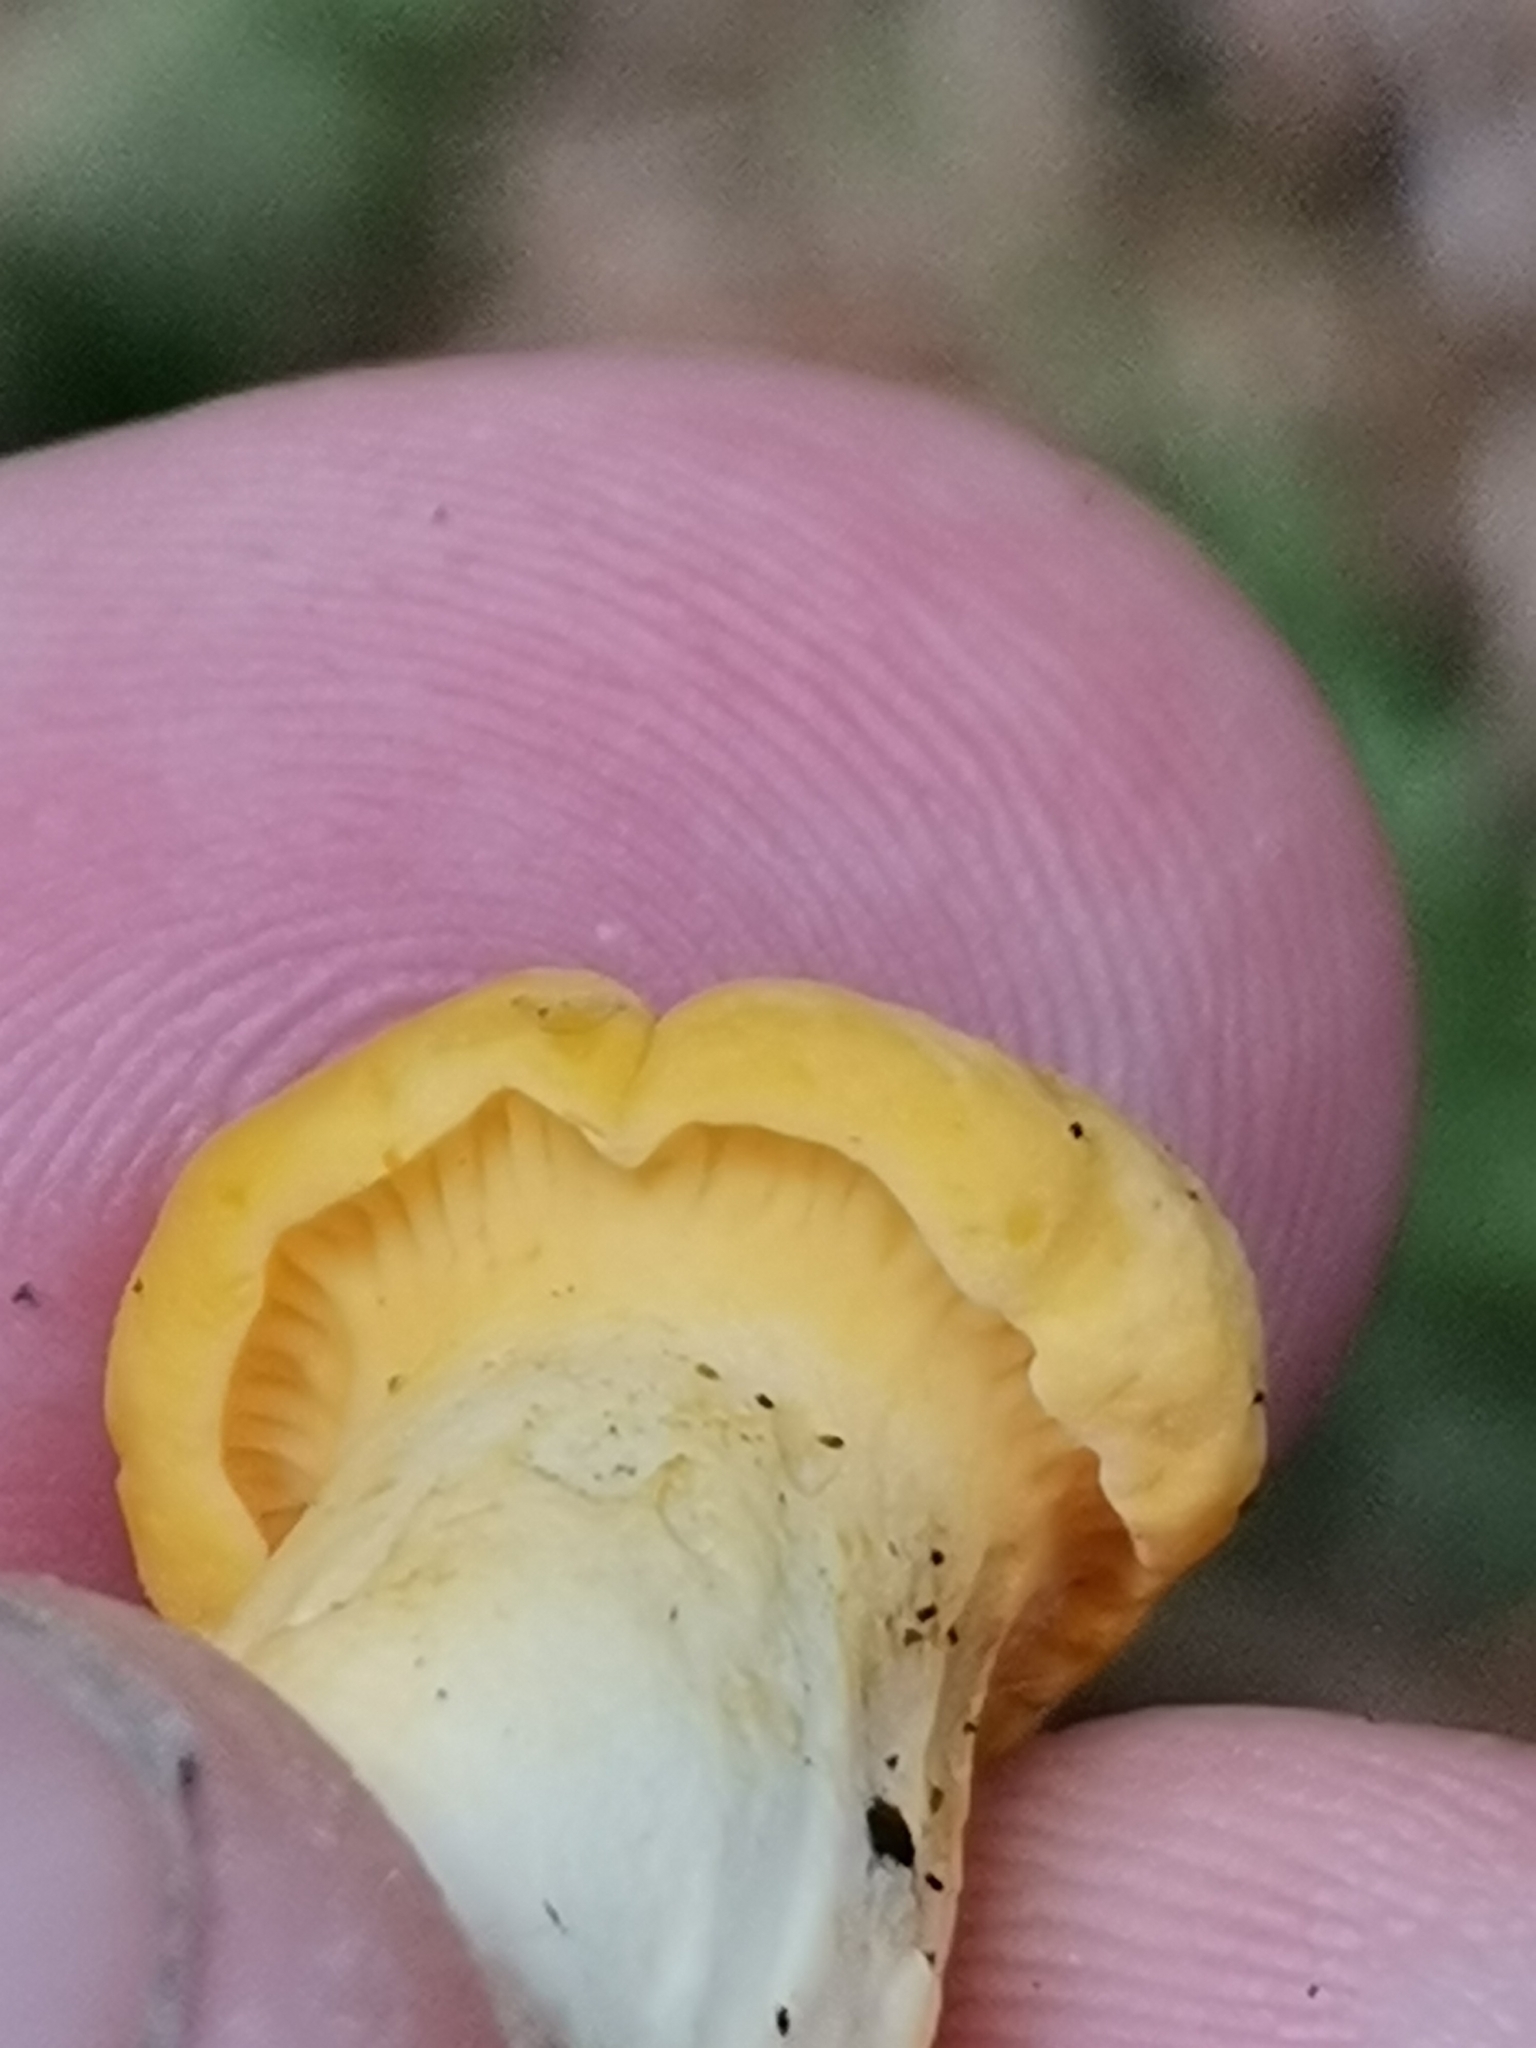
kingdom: Fungi
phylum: Basidiomycota
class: Agaricomycetes
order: Cantharellales
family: Hydnaceae
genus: Cantharellus
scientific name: Cantharellus cibarius
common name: Chanterelle
